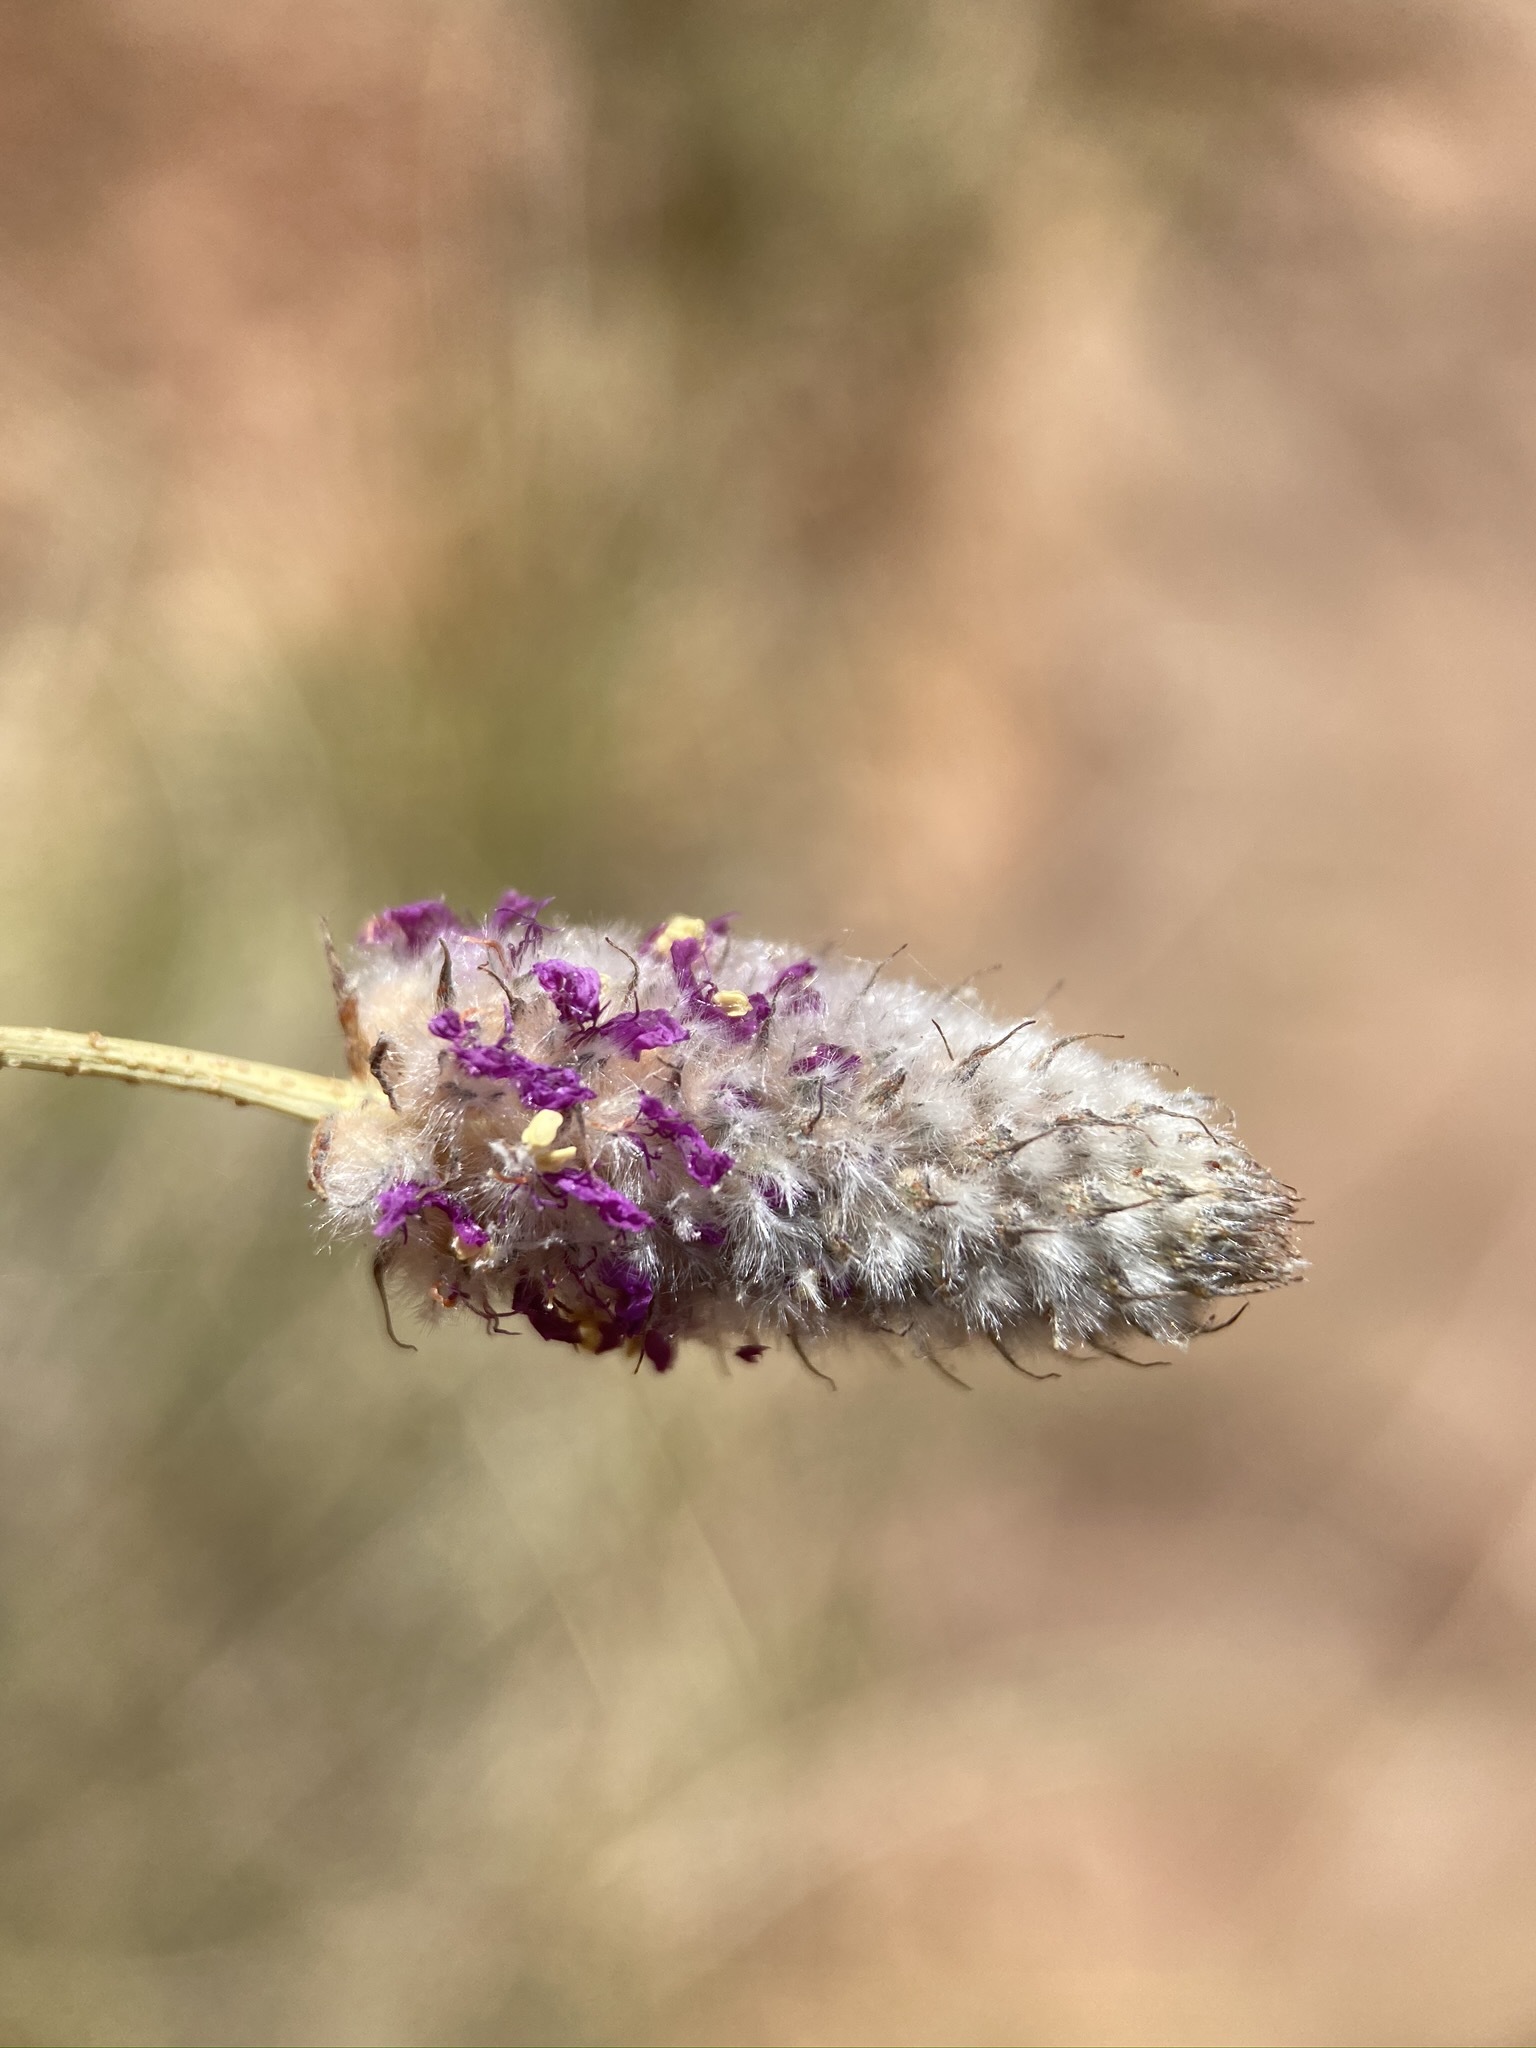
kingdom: Plantae
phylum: Tracheophyta
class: Magnoliopsida
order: Fabales
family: Fabaceae
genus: Dalea
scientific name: Dalea searlsiae
